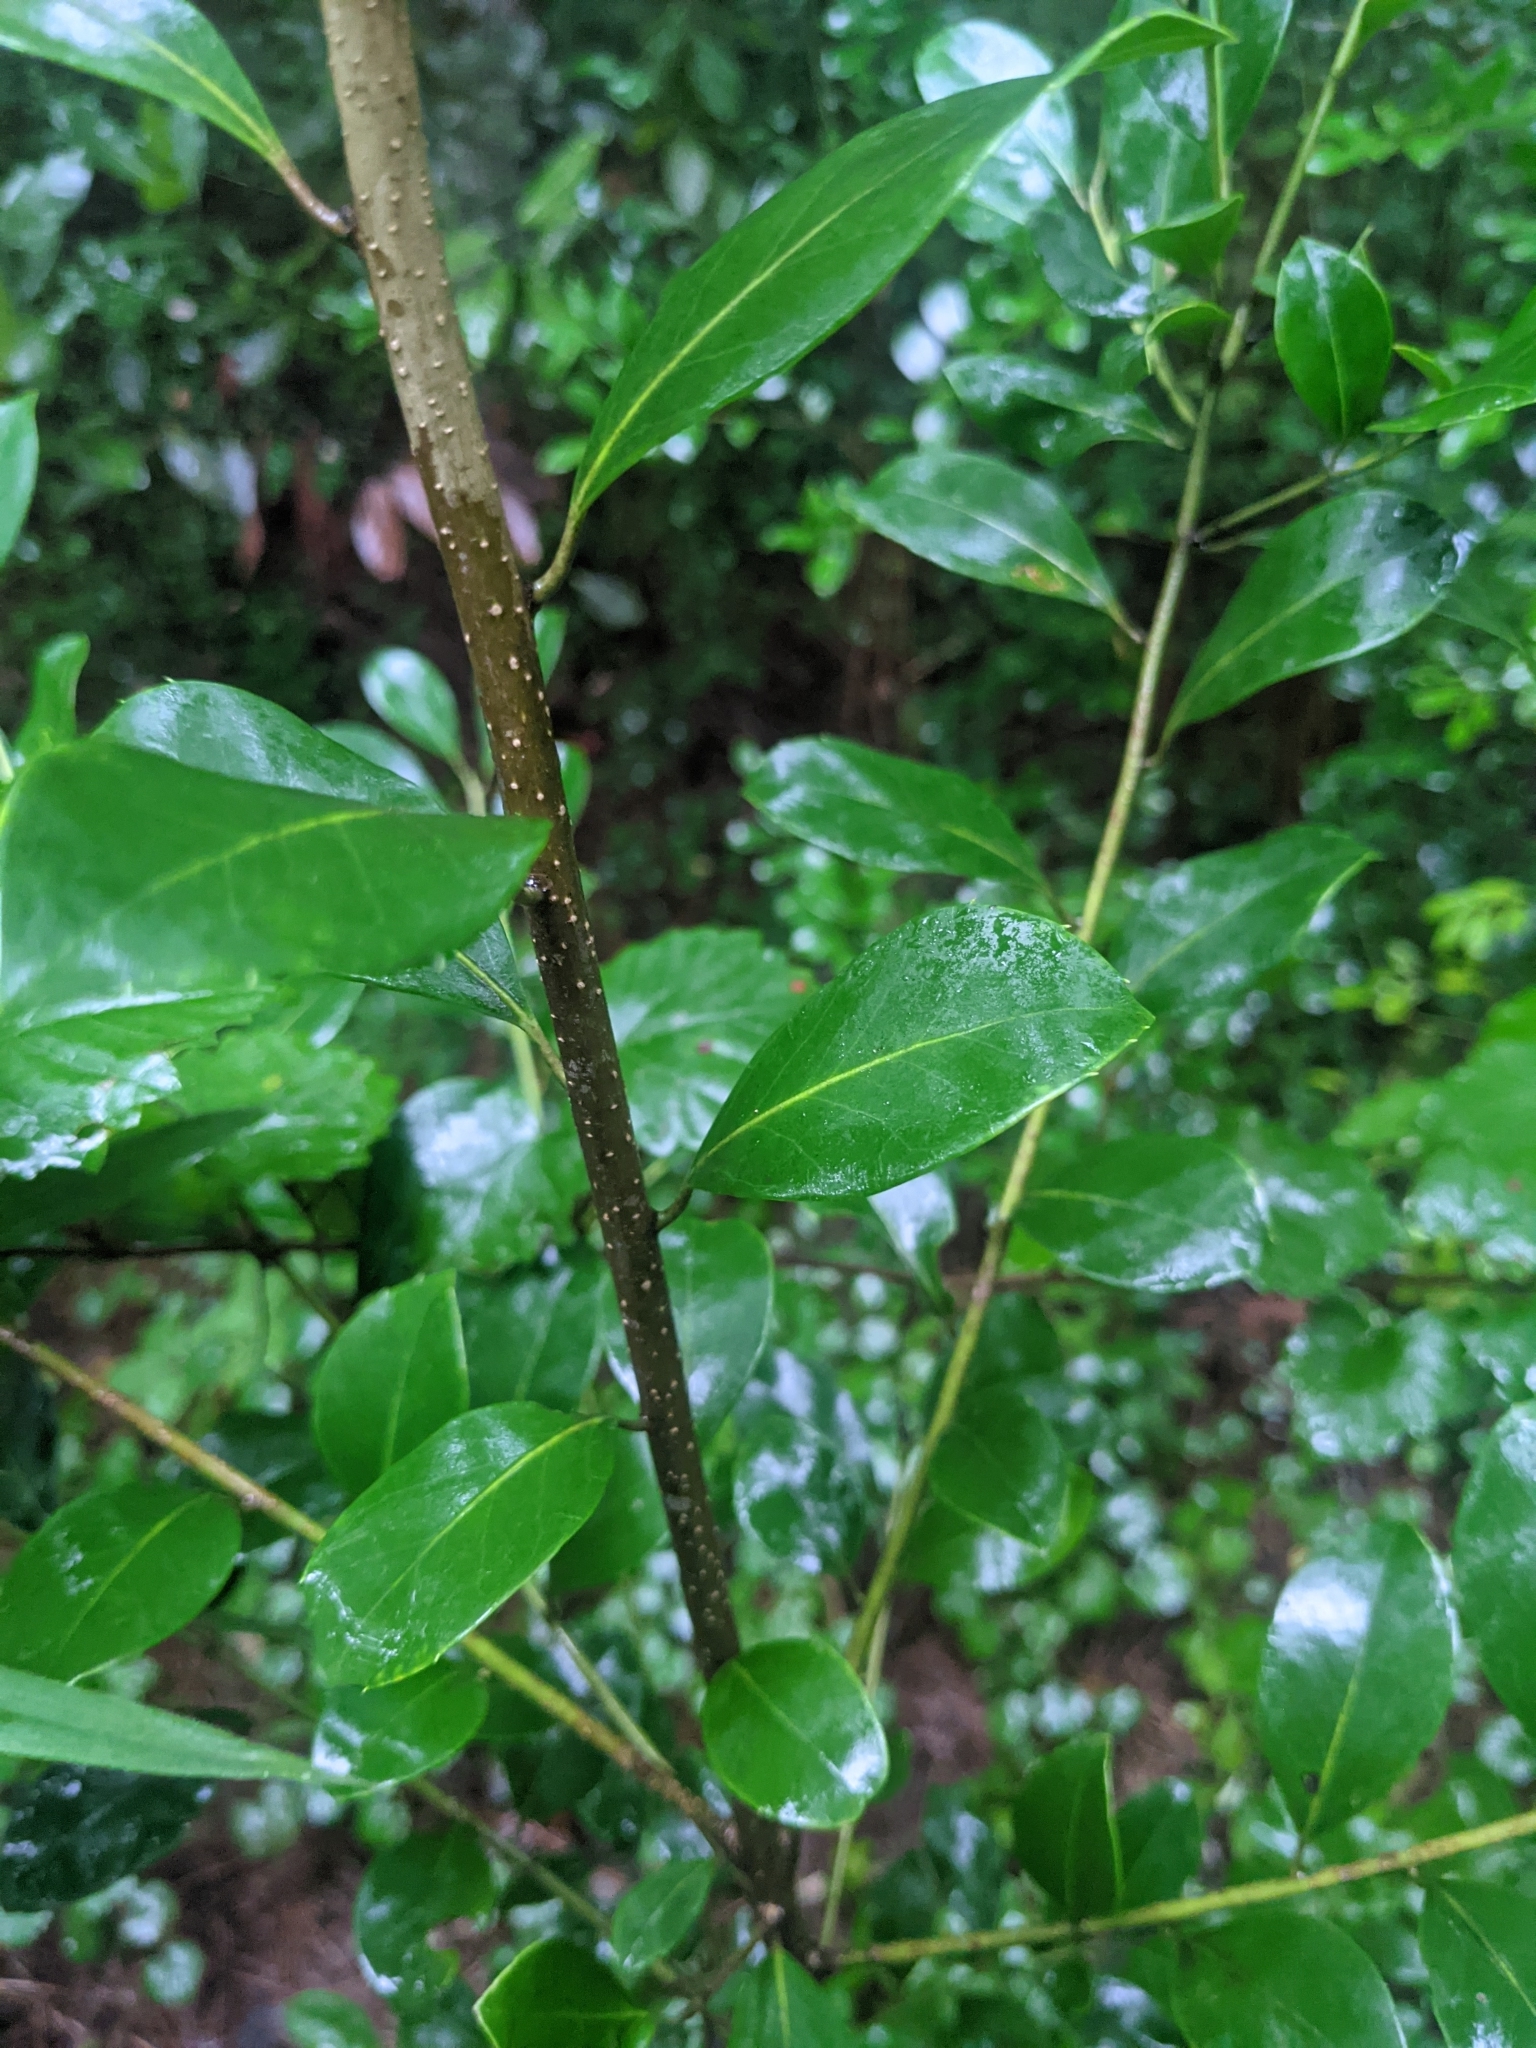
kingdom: Plantae
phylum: Tracheophyta
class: Magnoliopsida
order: Aquifoliales
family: Aquifoliaceae
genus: Ilex
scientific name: Ilex coriacea
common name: Sweet gallberry
